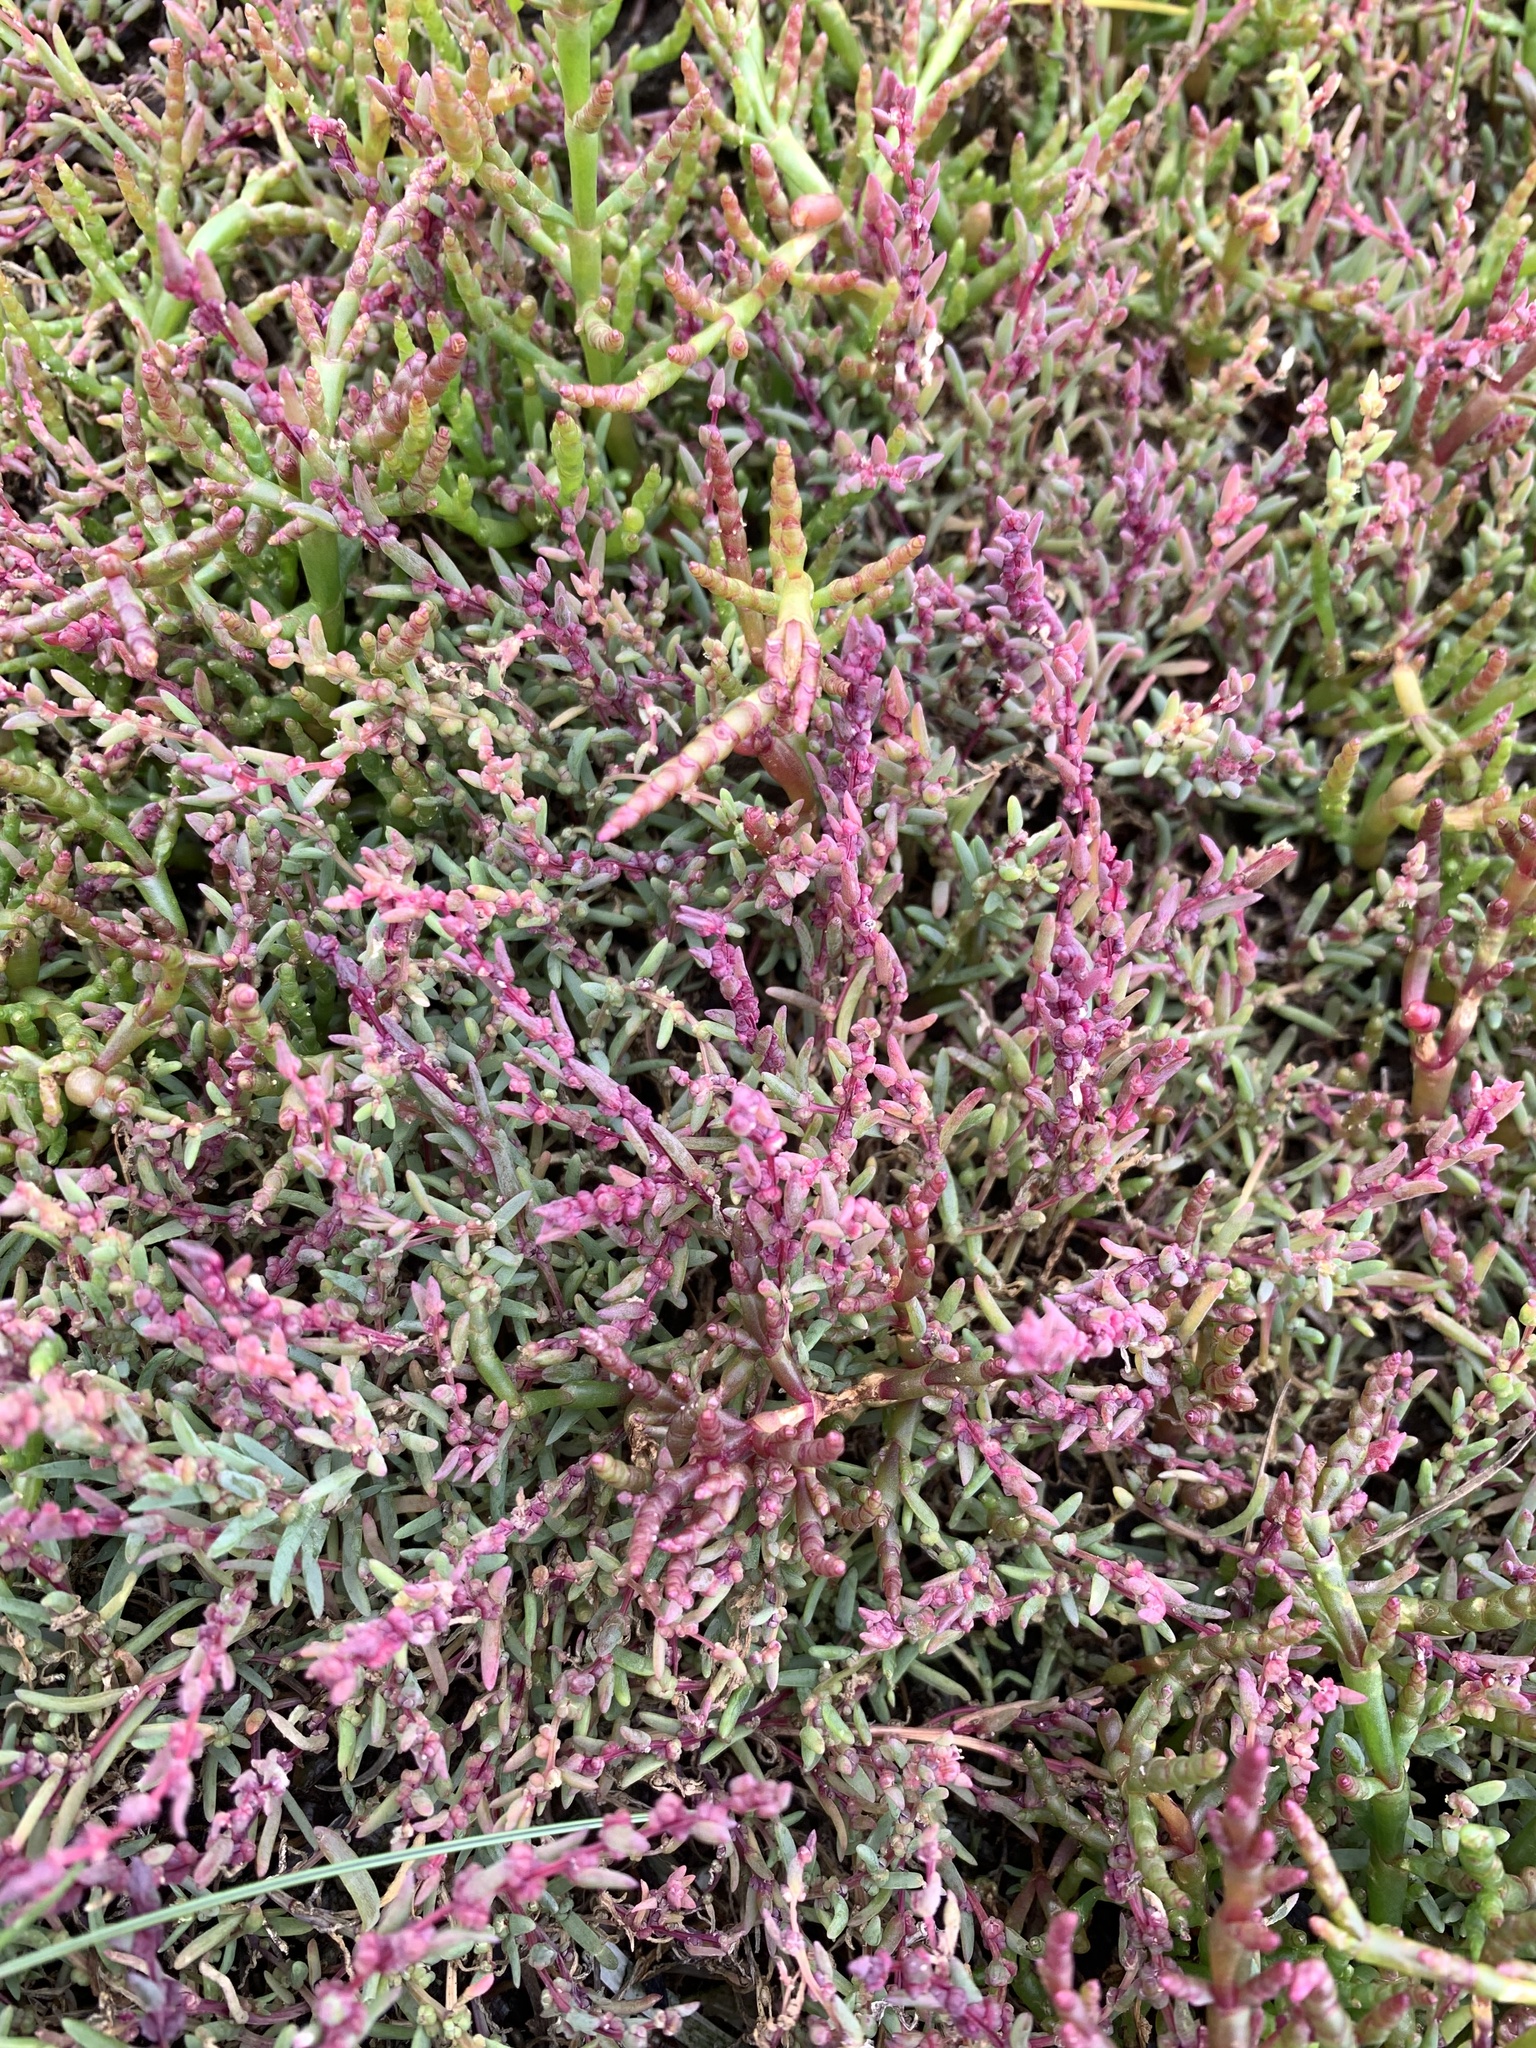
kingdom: Plantae
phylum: Tracheophyta
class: Magnoliopsida
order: Caryophyllales
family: Amaranthaceae
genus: Salicornia
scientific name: Salicornia europaea
